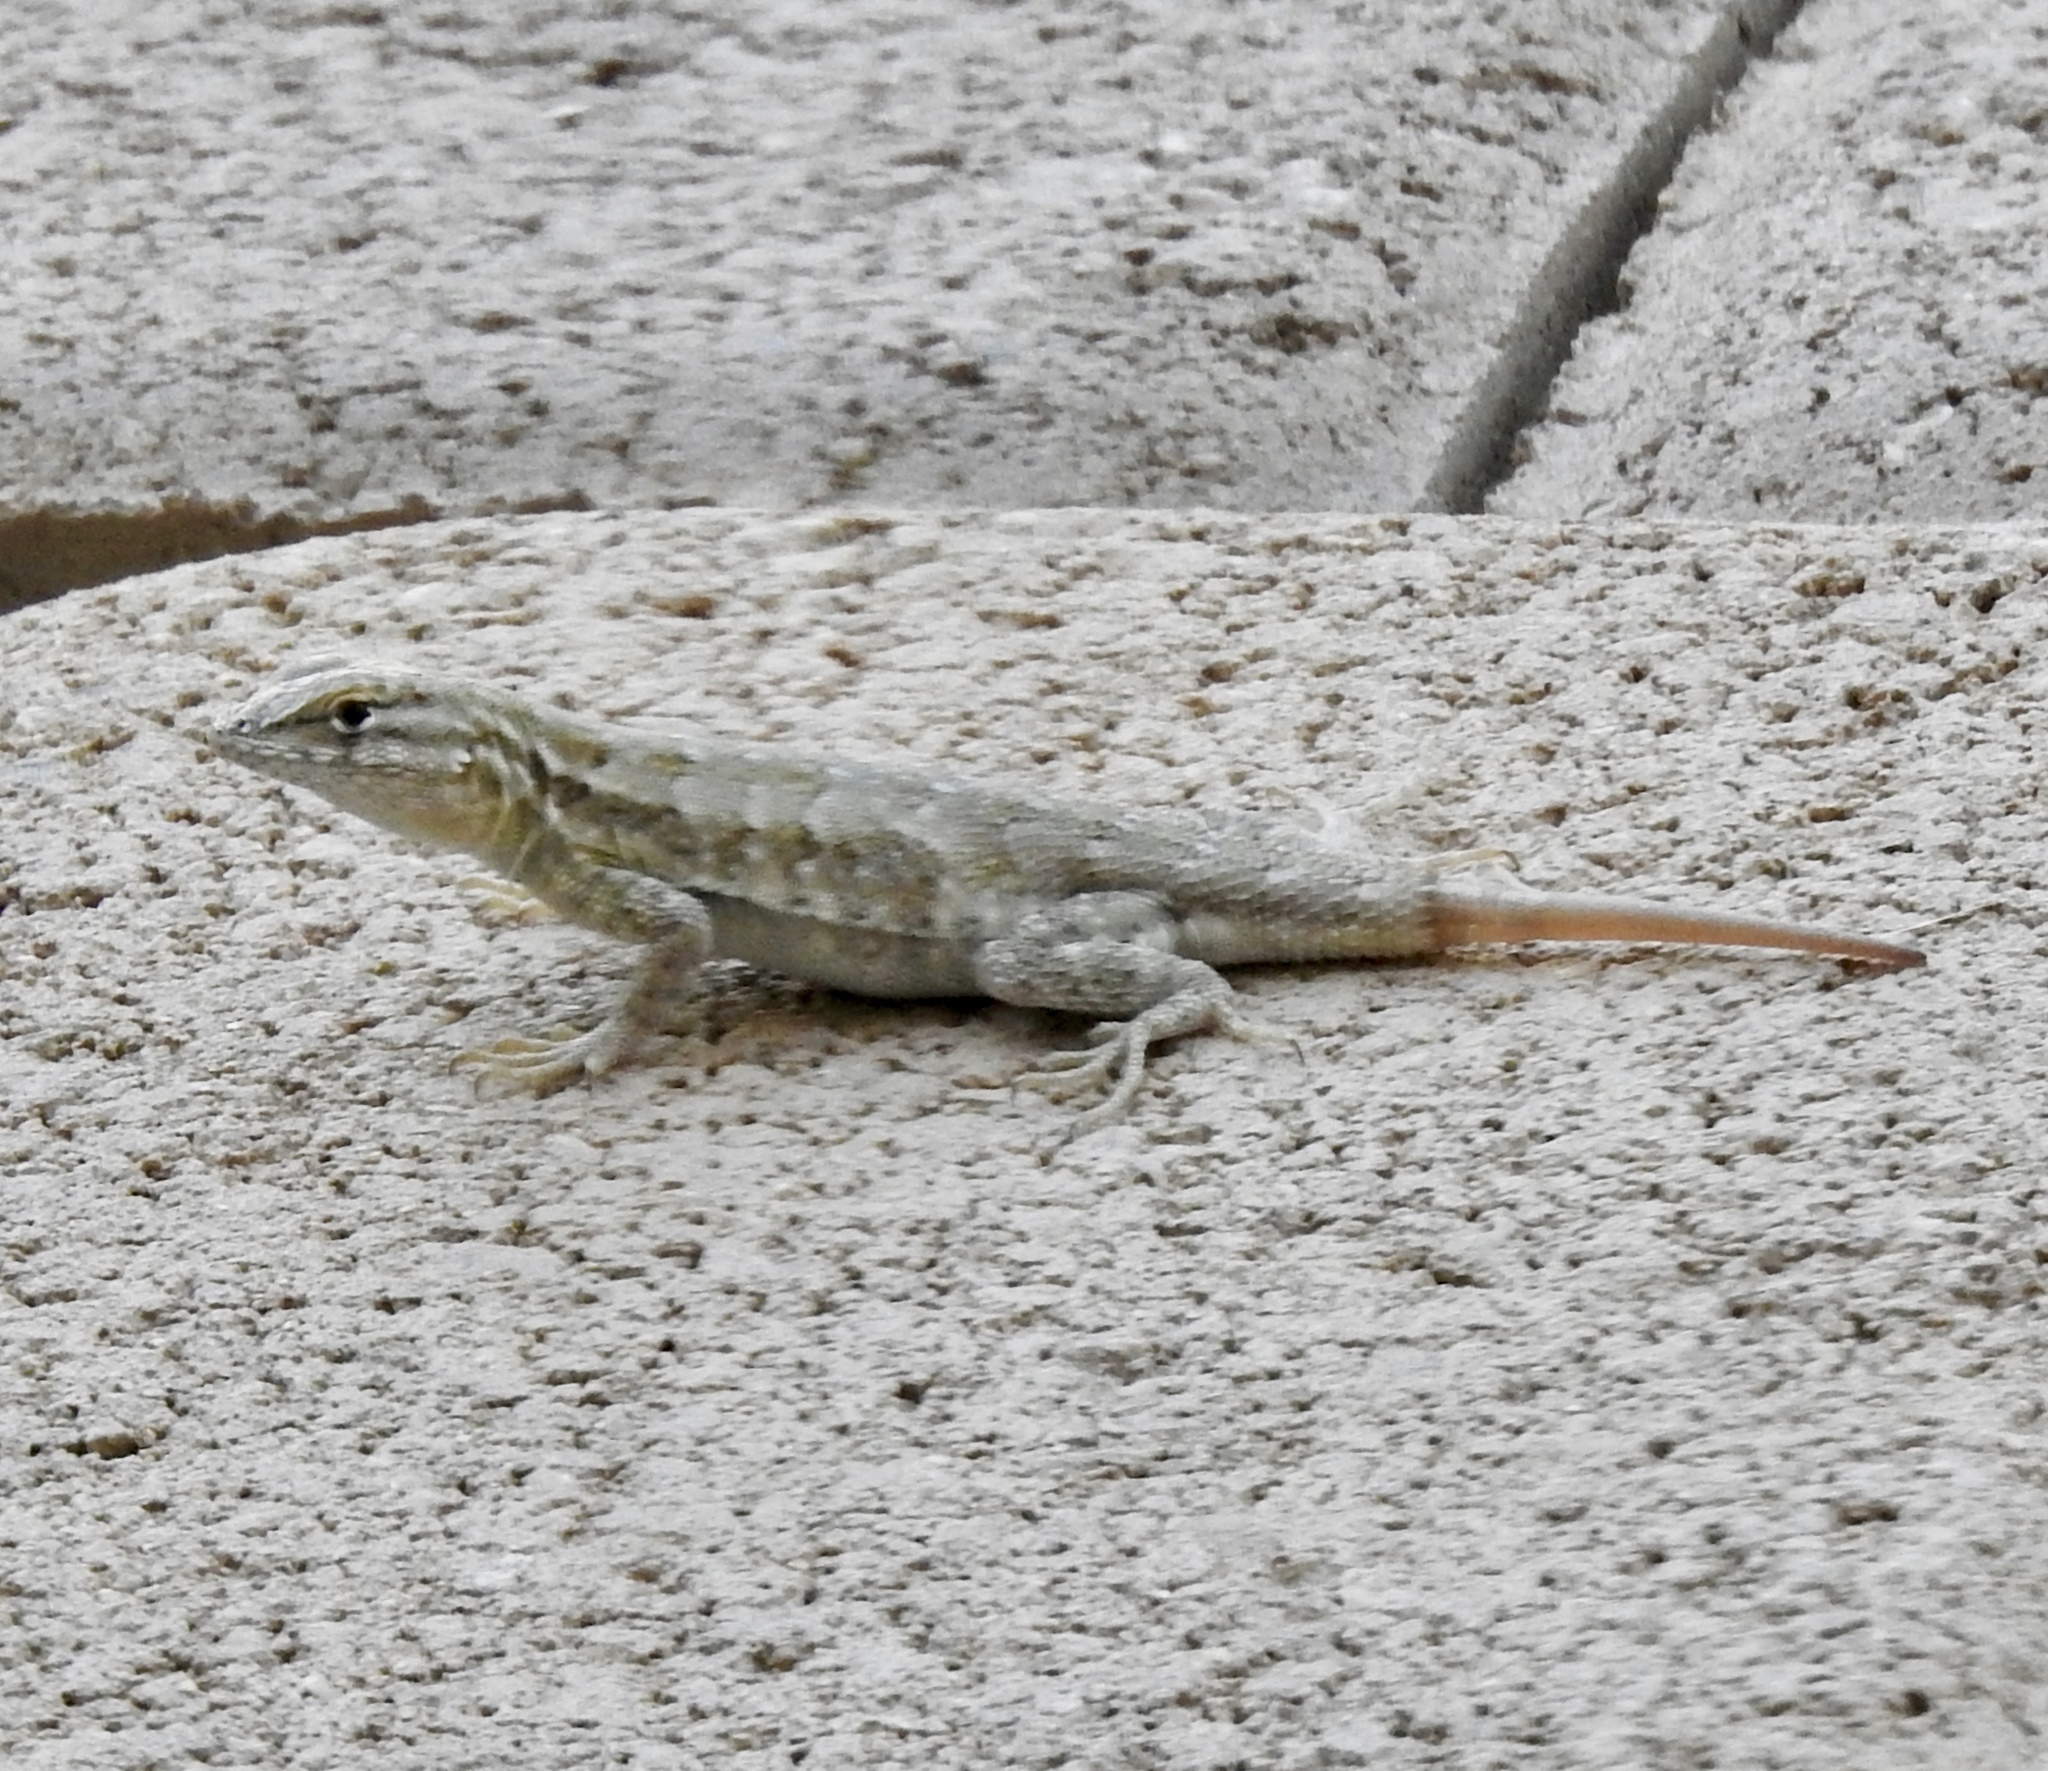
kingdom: Animalia
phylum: Chordata
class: Squamata
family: Phrynosomatidae
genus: Uta
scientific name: Uta stansburiana
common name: Side-blotched lizard
